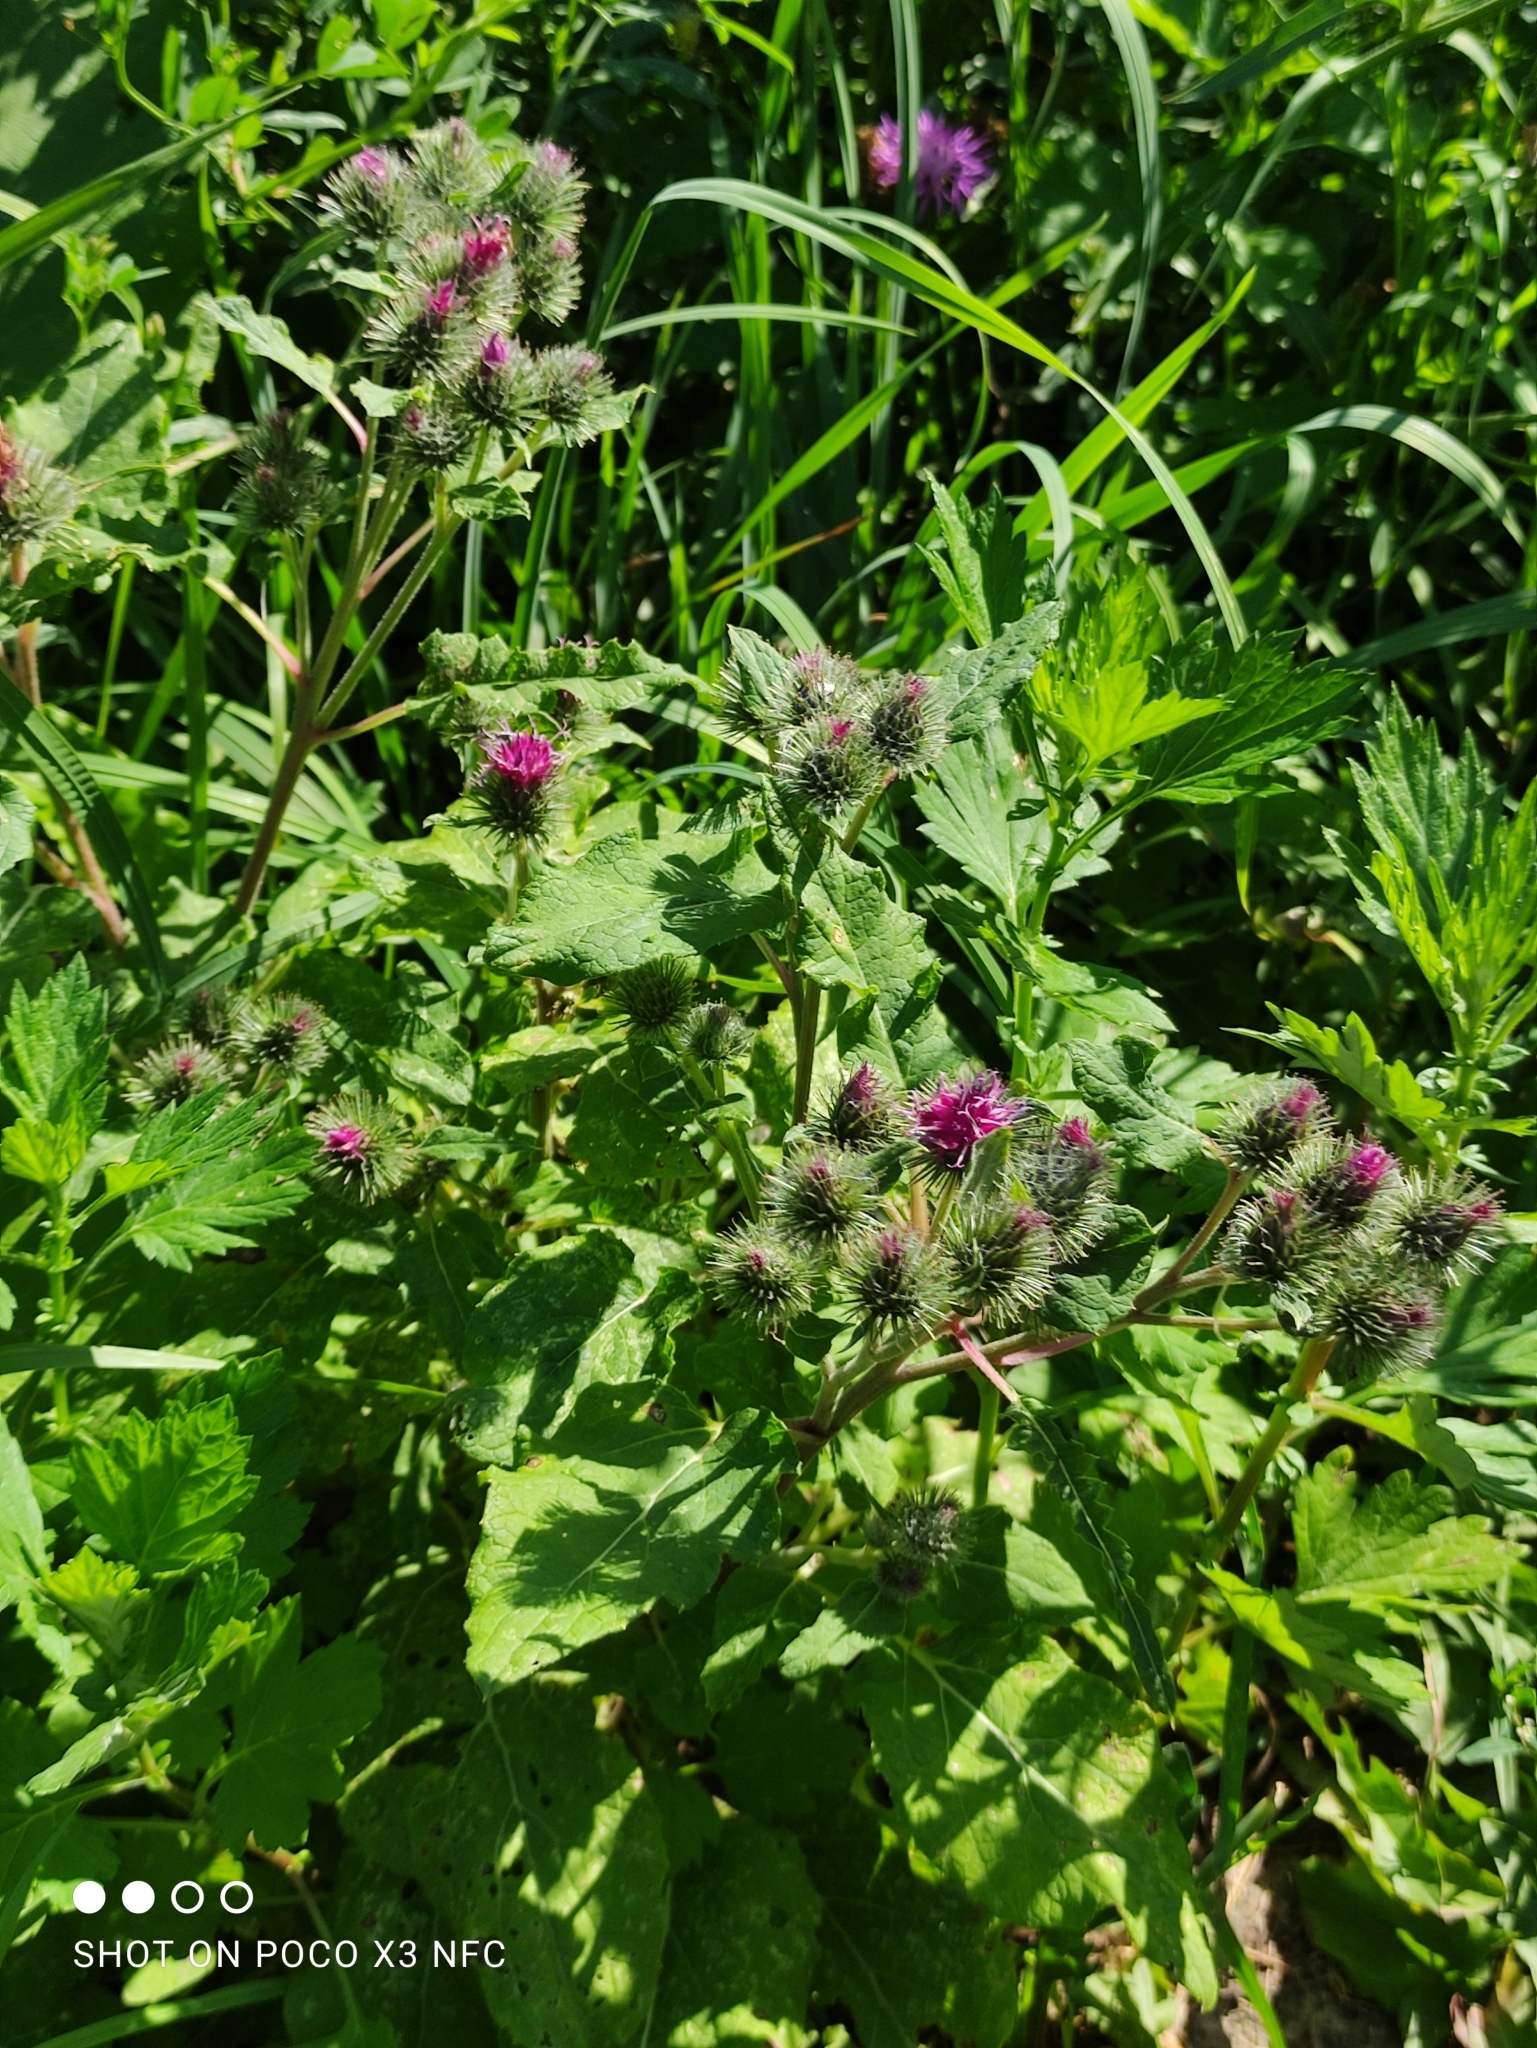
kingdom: Plantae
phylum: Tracheophyta
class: Magnoliopsida
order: Asterales
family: Asteraceae
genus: Arctium
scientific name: Arctium tomentosum
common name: Woolly burdock
